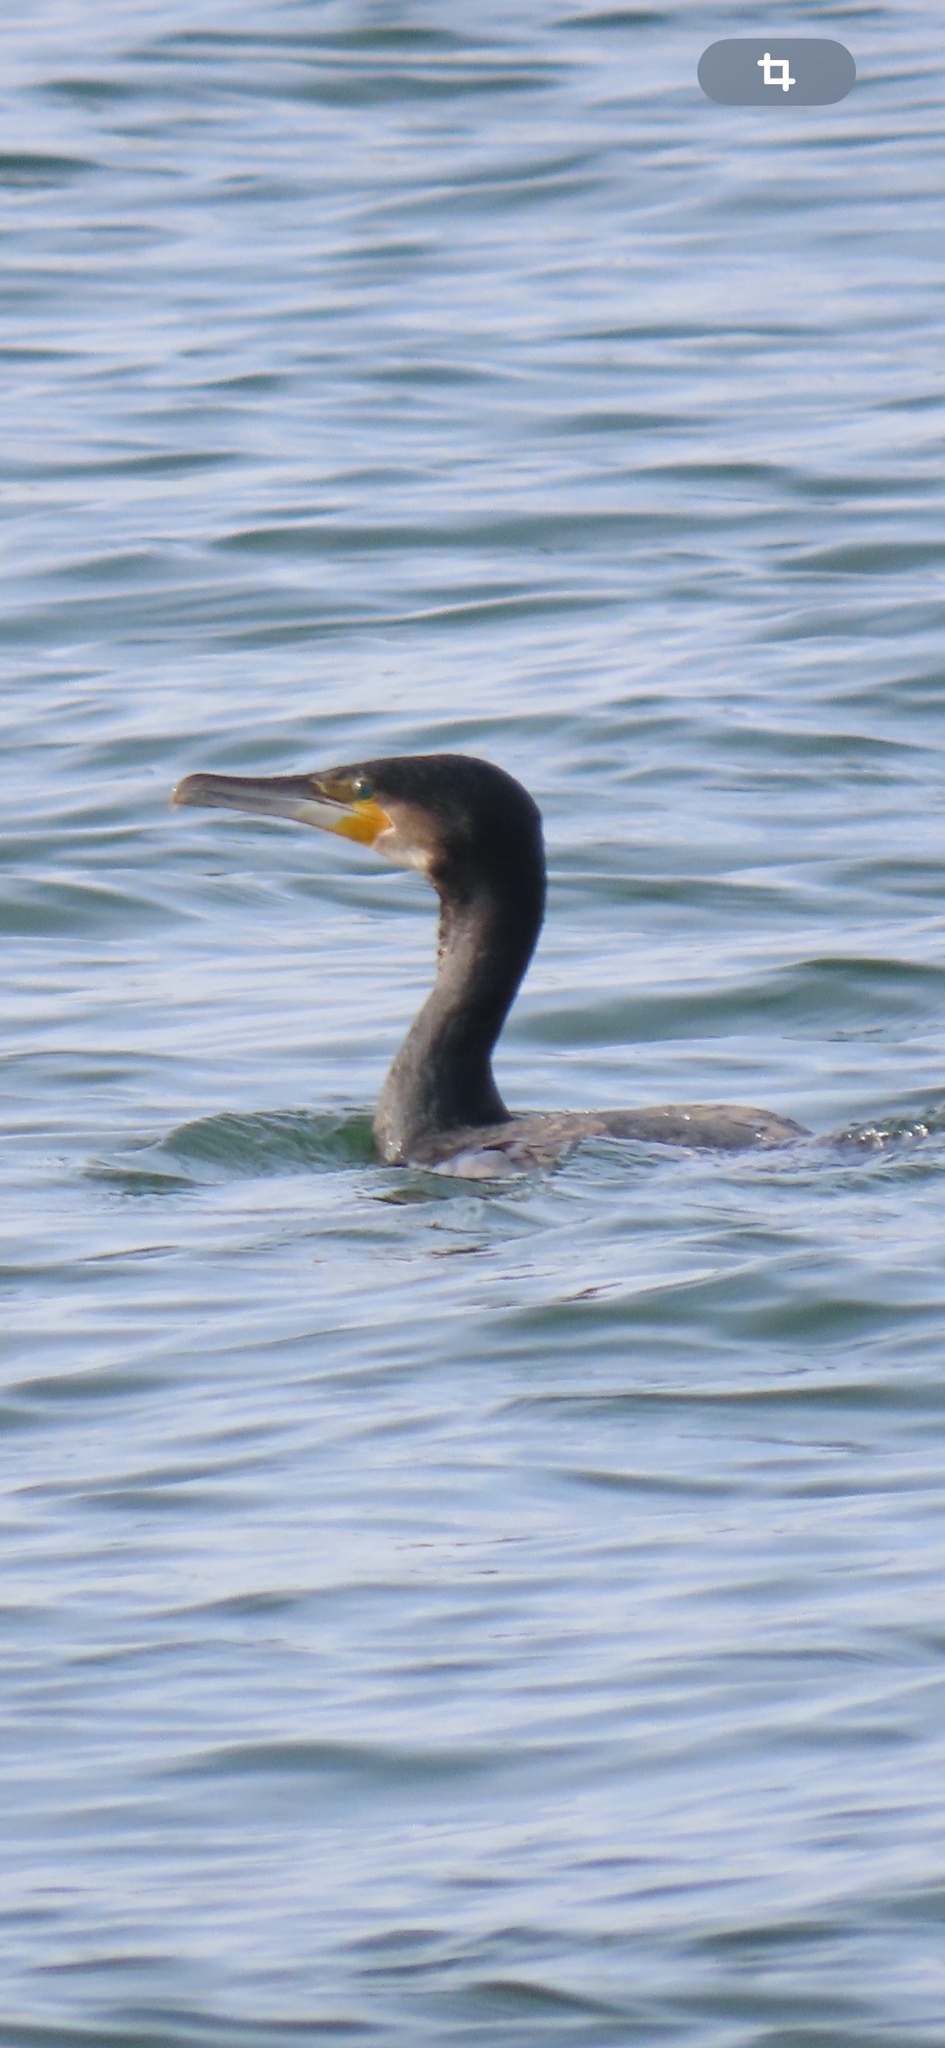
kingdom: Animalia
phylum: Chordata
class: Aves
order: Suliformes
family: Phalacrocoracidae
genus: Phalacrocorax
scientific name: Phalacrocorax carbo
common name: Great cormorant
